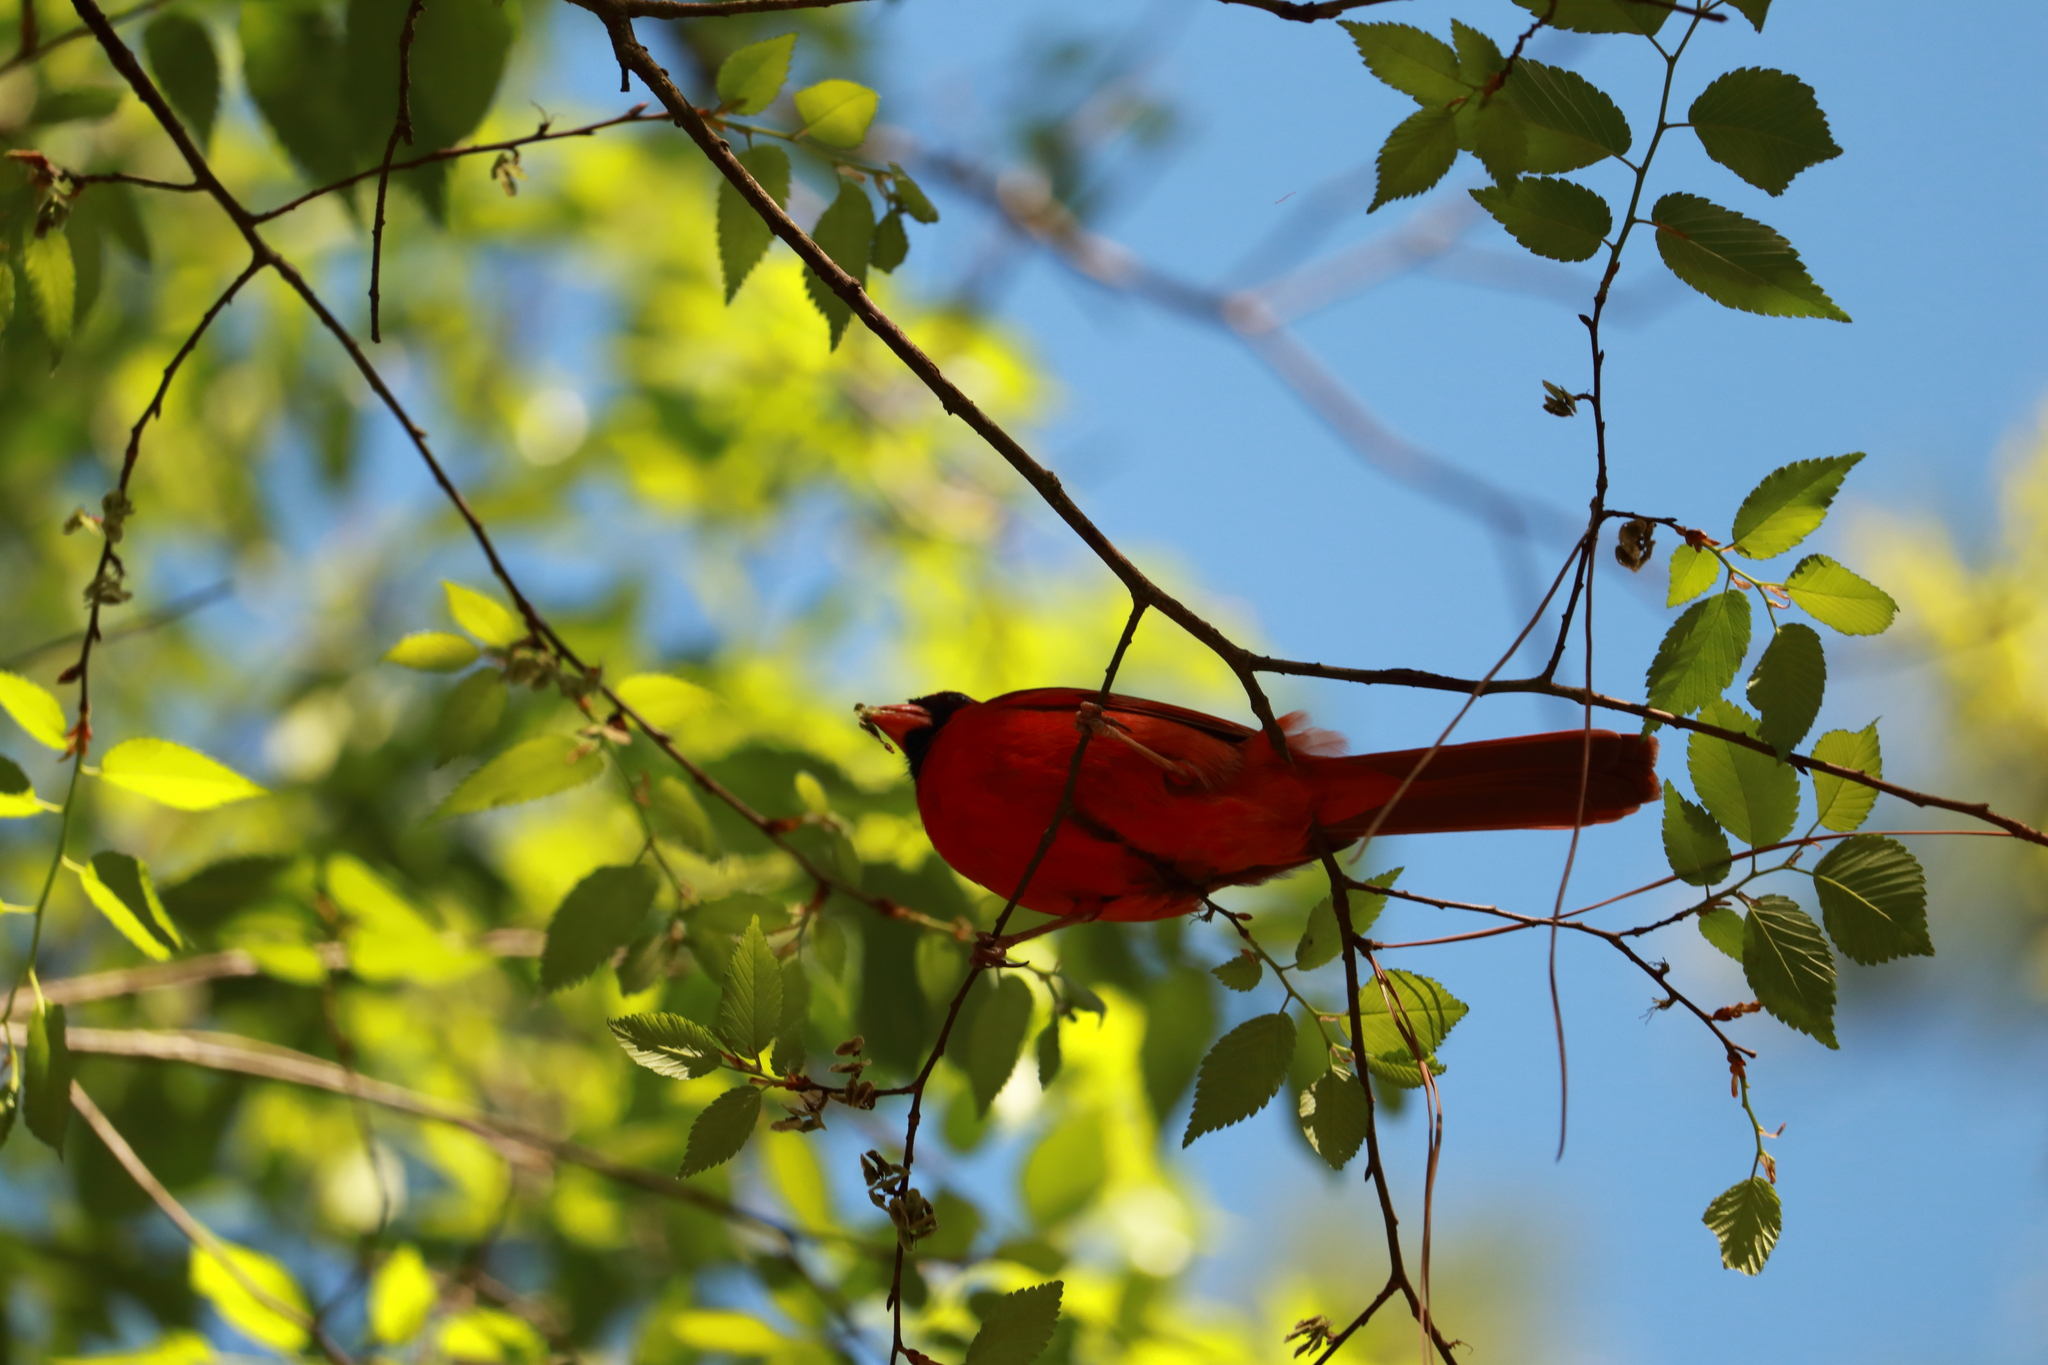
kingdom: Animalia
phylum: Chordata
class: Aves
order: Passeriformes
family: Cardinalidae
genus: Cardinalis
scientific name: Cardinalis cardinalis
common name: Northern cardinal
